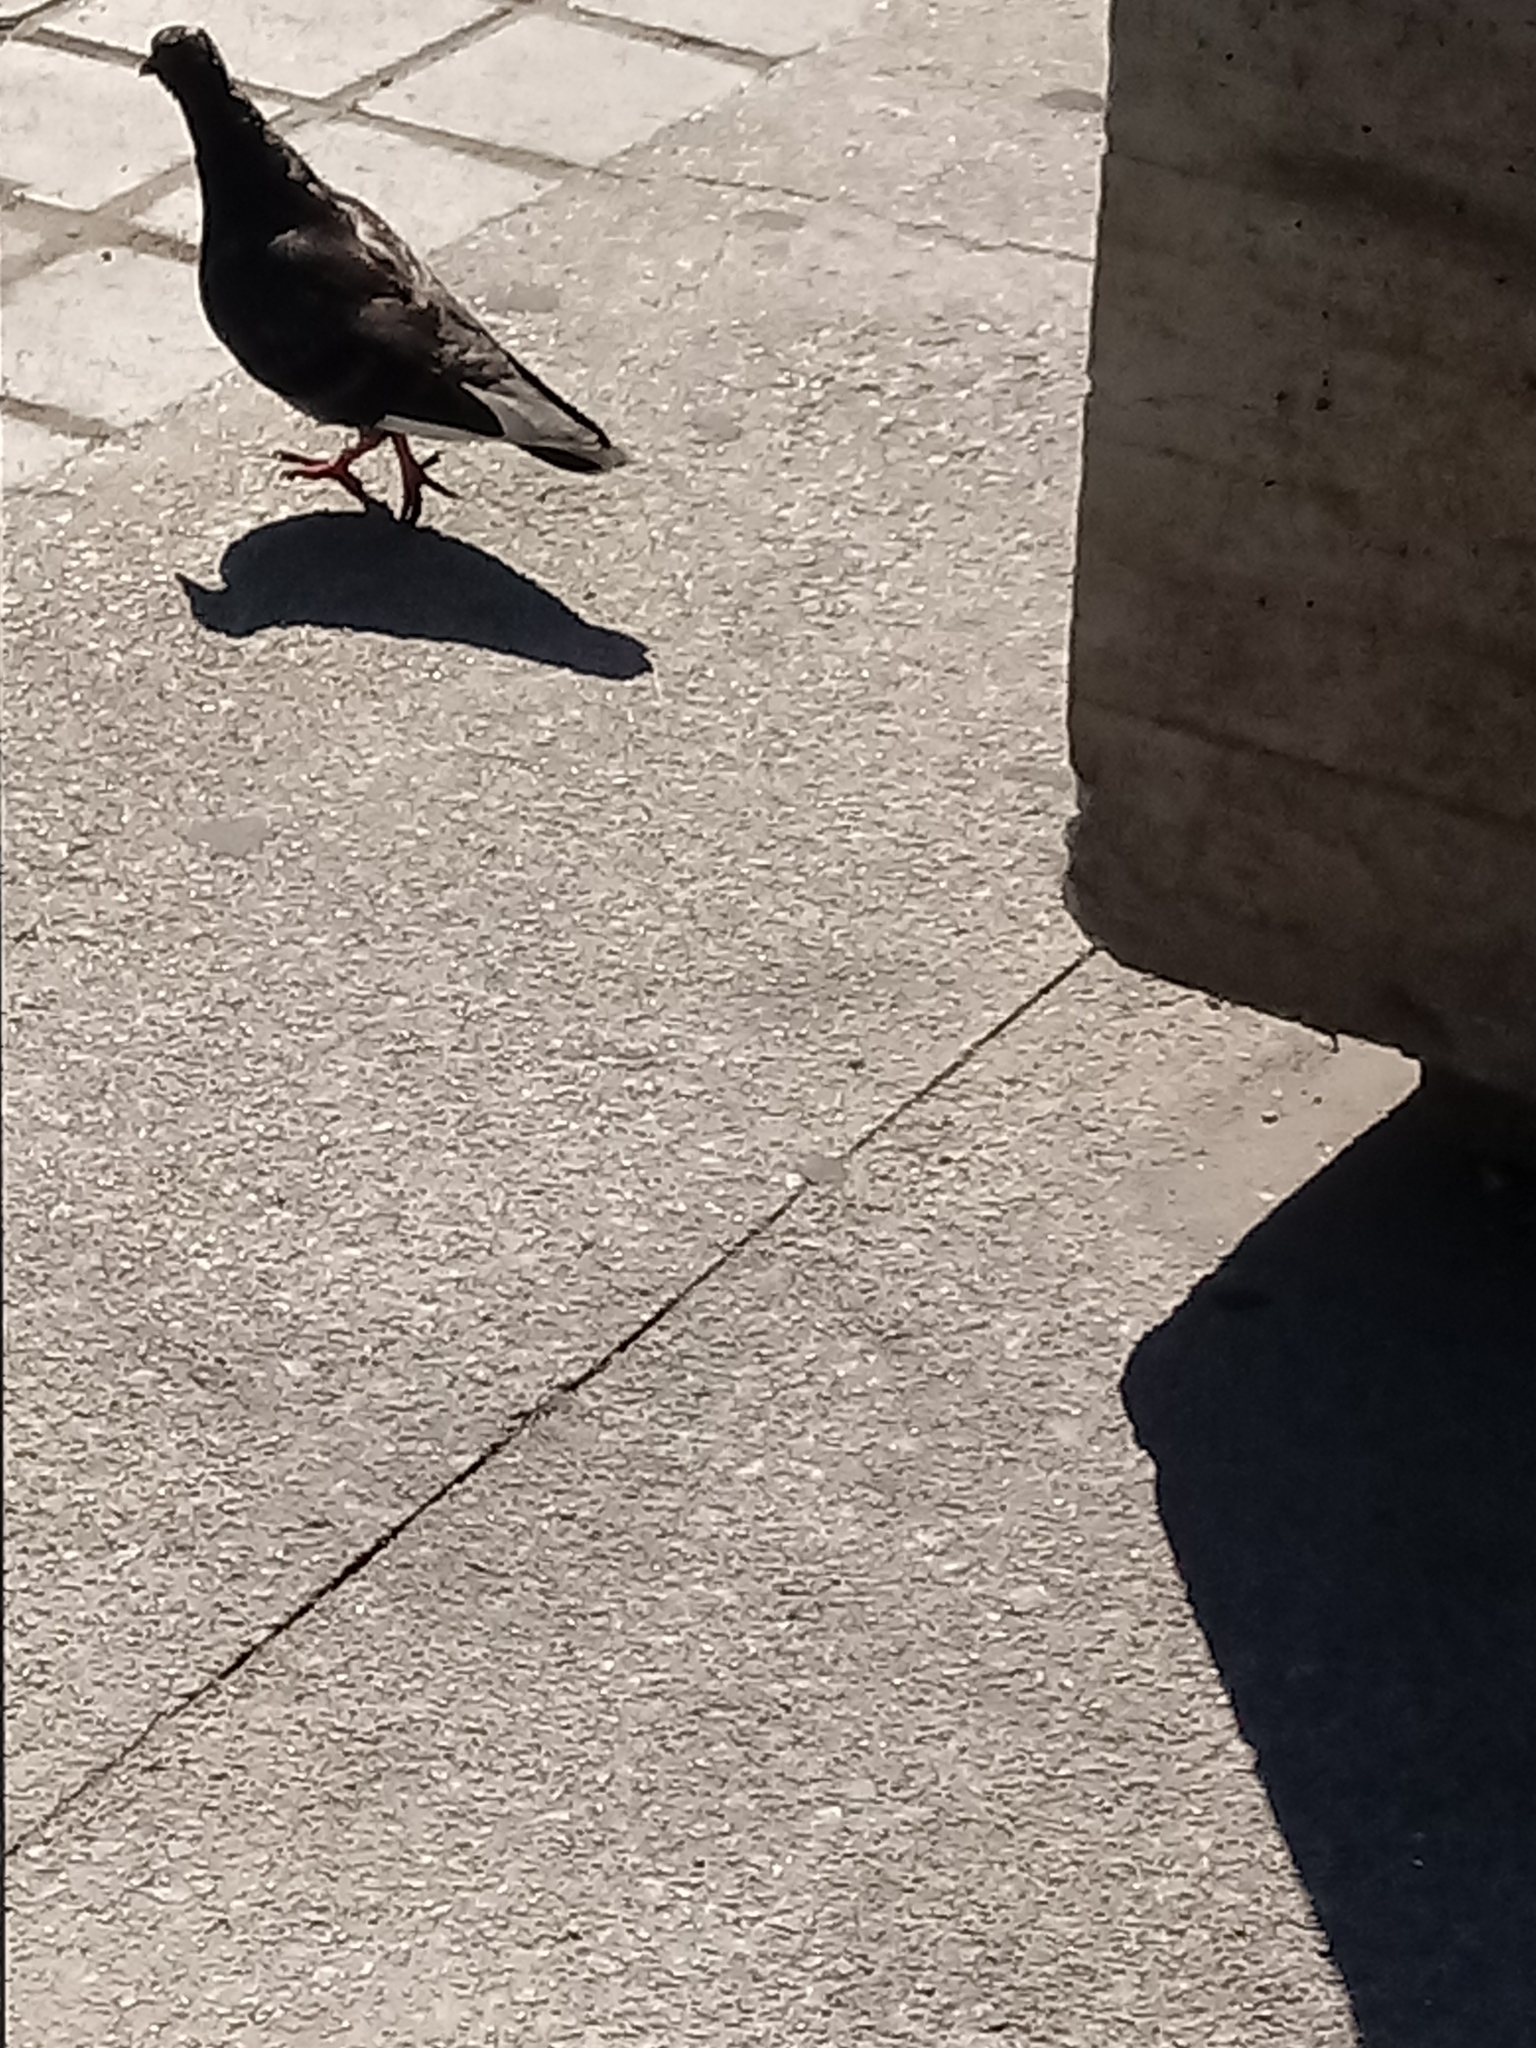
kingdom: Animalia
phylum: Chordata
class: Aves
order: Columbiformes
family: Columbidae
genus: Columba
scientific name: Columba livia
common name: Rock pigeon
